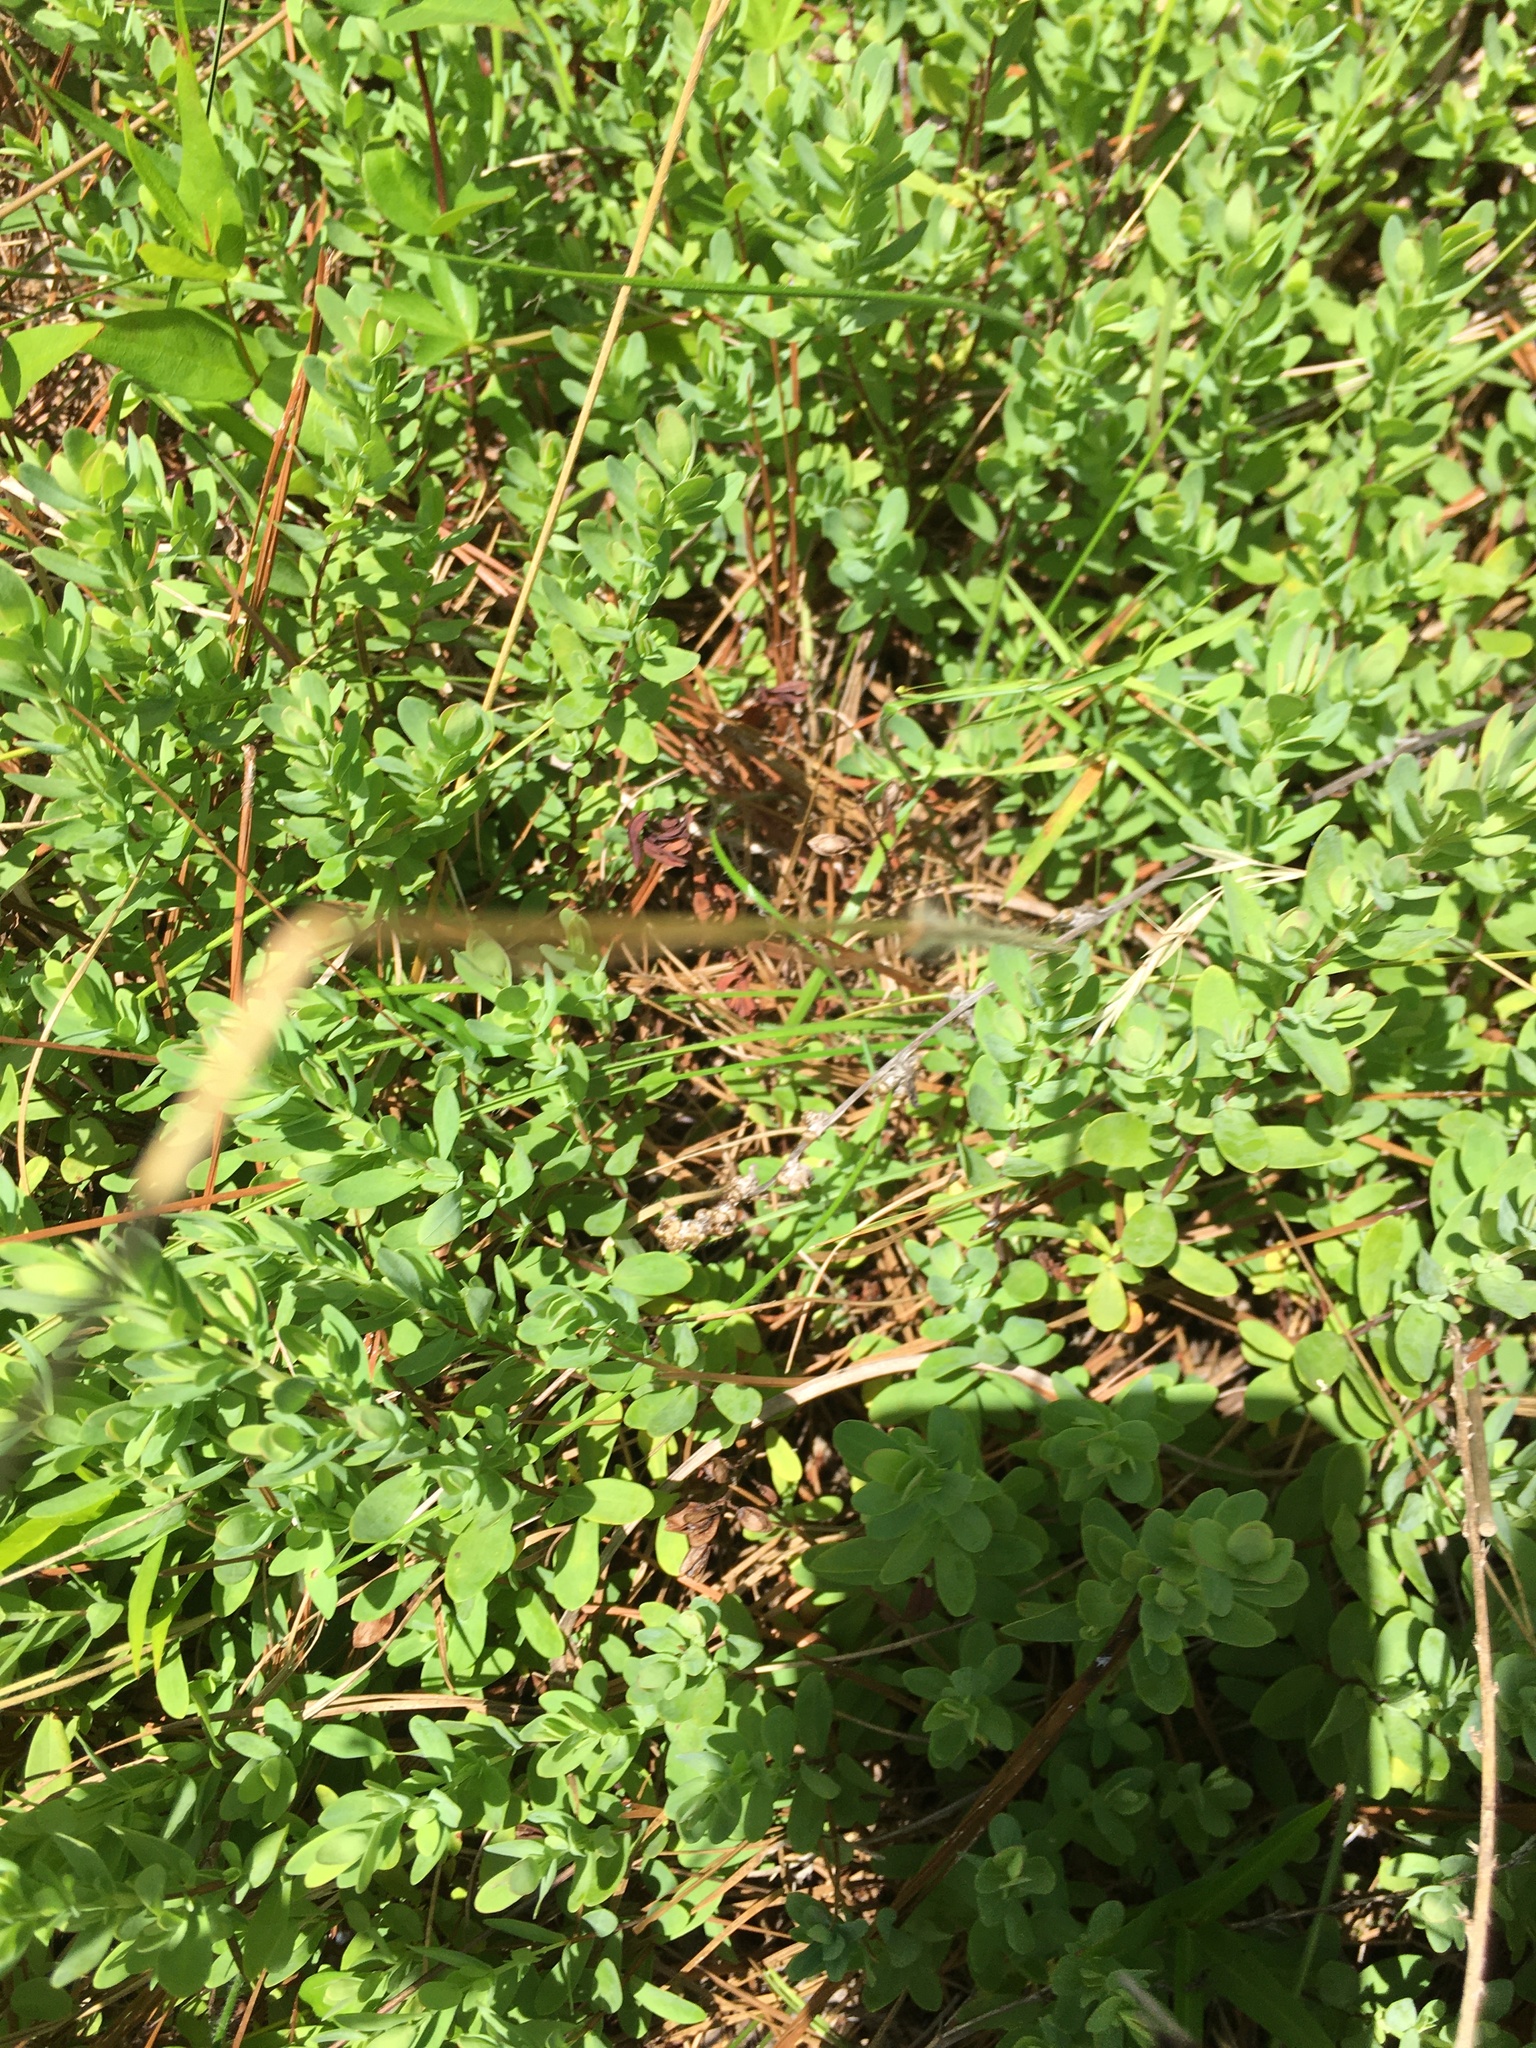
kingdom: Plantae
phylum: Tracheophyta
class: Magnoliopsida
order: Malpighiales
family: Hypericaceae
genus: Hypericum
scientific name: Hypericum hypericoides
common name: St. andrew's cross
